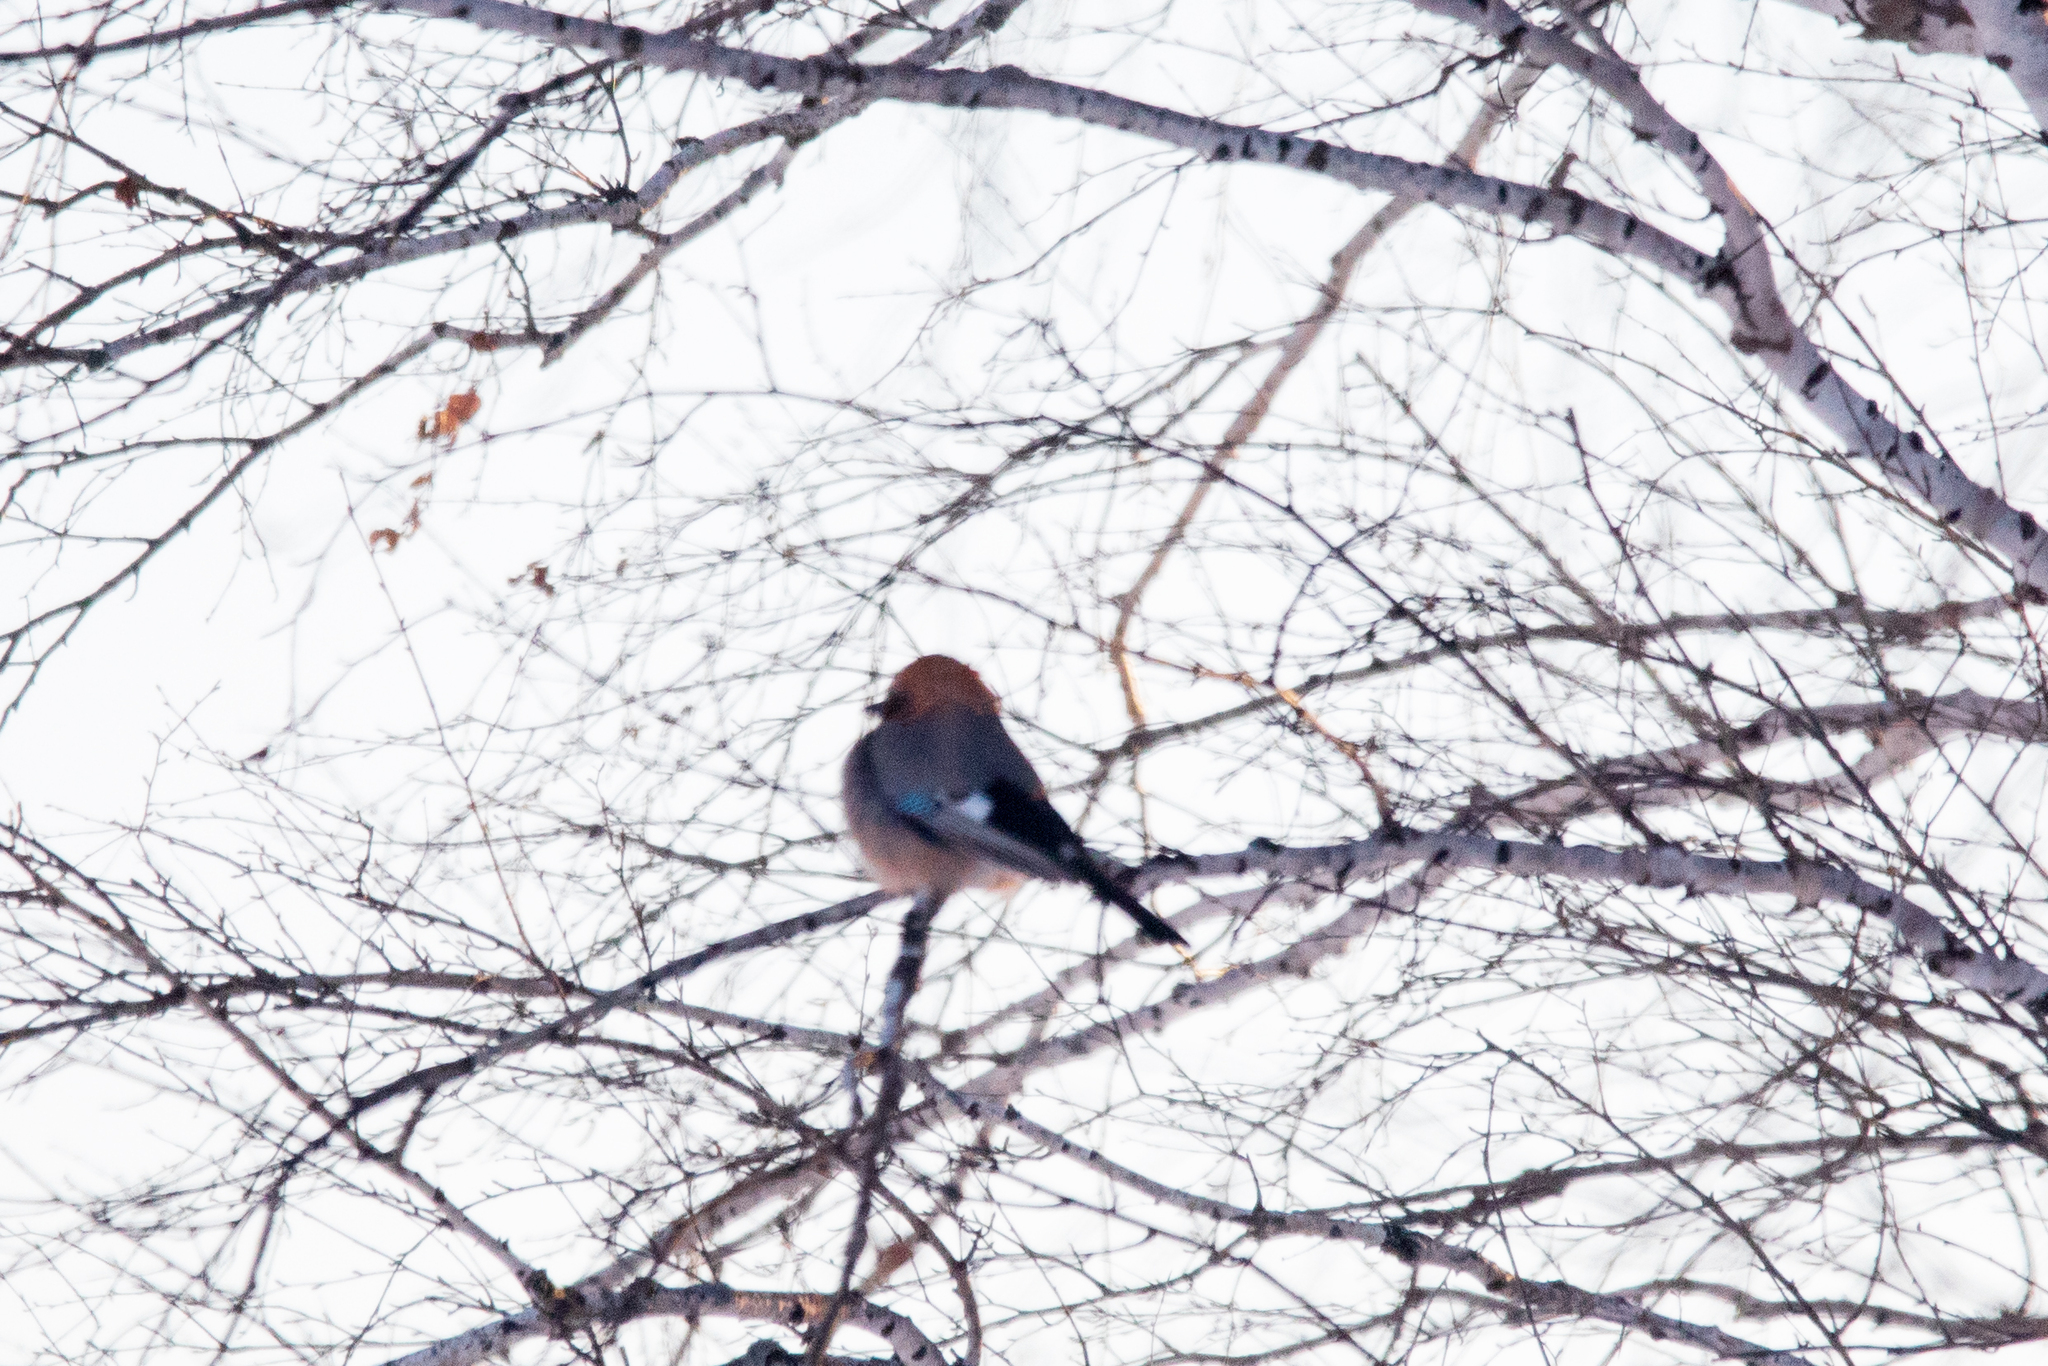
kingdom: Animalia
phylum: Chordata
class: Aves
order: Passeriformes
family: Corvidae
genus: Garrulus
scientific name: Garrulus glandarius
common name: Eurasian jay
